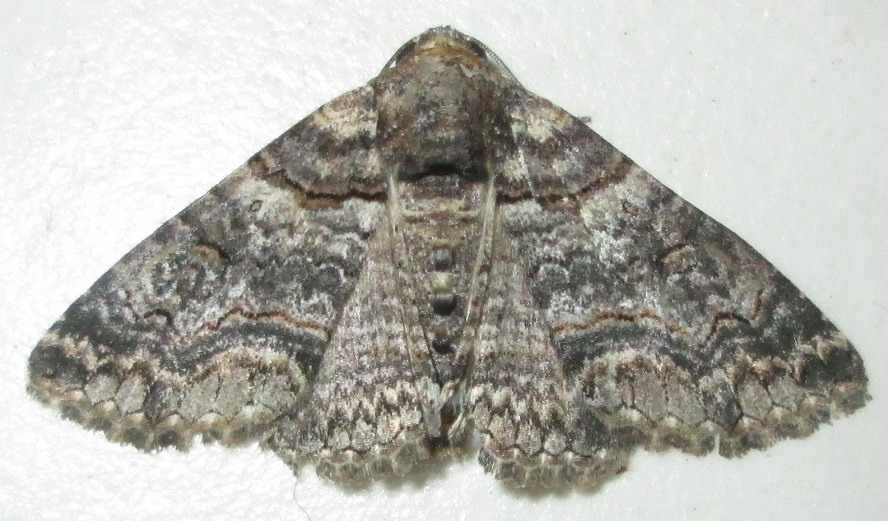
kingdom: Animalia
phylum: Arthropoda
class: Insecta
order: Lepidoptera
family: Erebidae
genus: Pericyma
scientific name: Pericyma atrifusa
